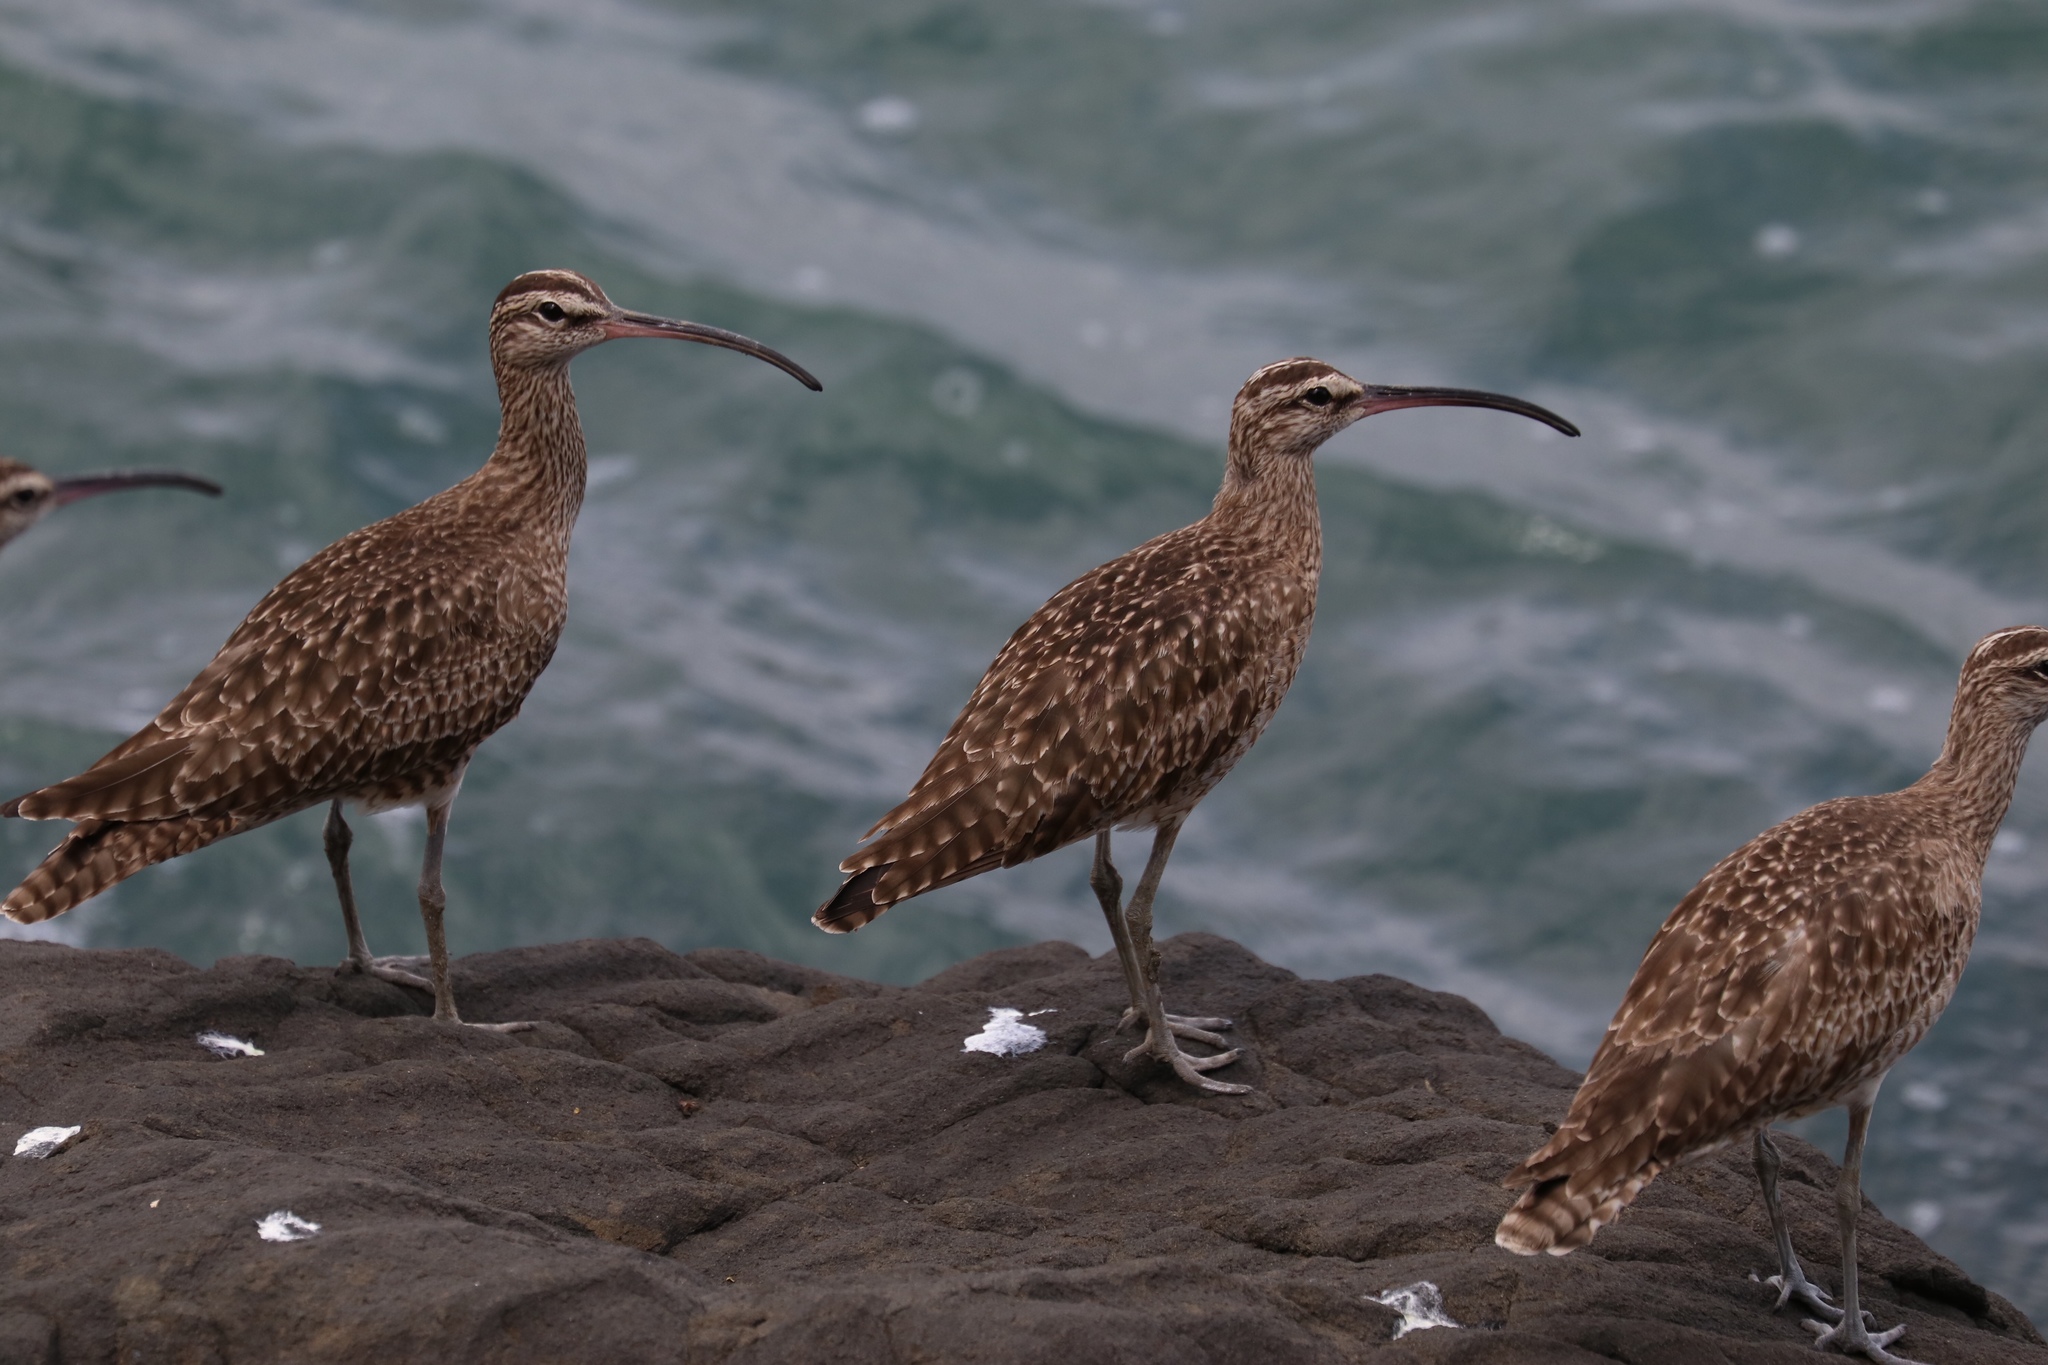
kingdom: Animalia
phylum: Chordata
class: Aves
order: Charadriiformes
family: Scolopacidae
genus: Numenius
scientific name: Numenius phaeopus
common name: Whimbrel
